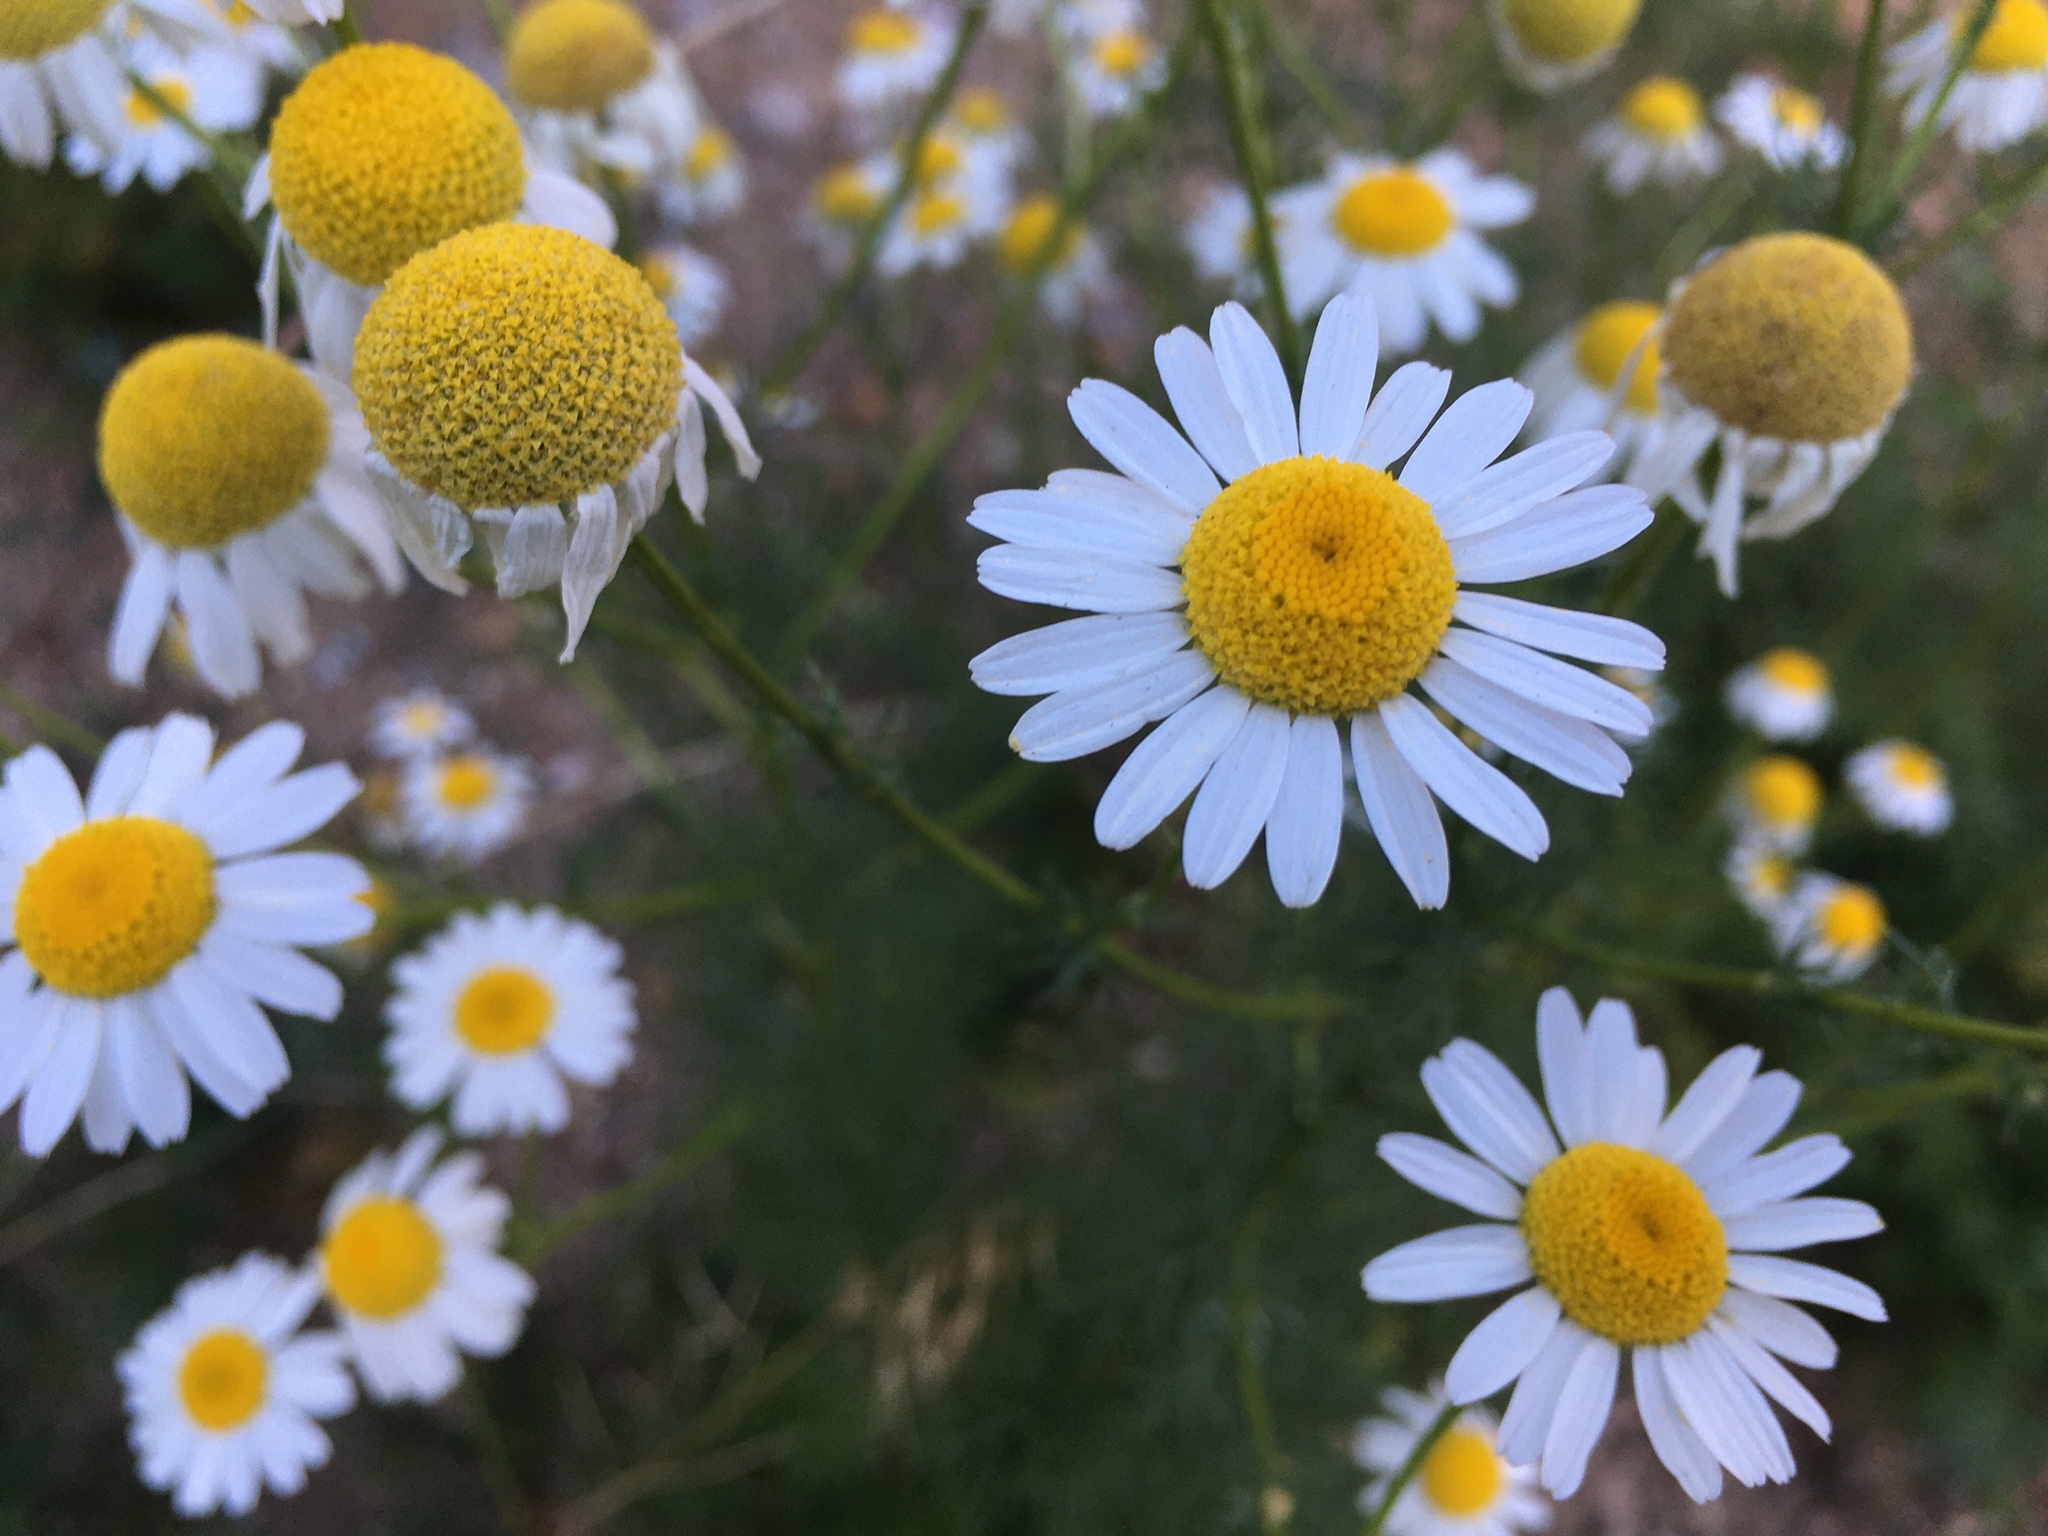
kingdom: Plantae
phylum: Tracheophyta
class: Magnoliopsida
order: Asterales
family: Asteraceae
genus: Tripleurospermum
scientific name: Tripleurospermum inodorum
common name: Scentless mayweed
